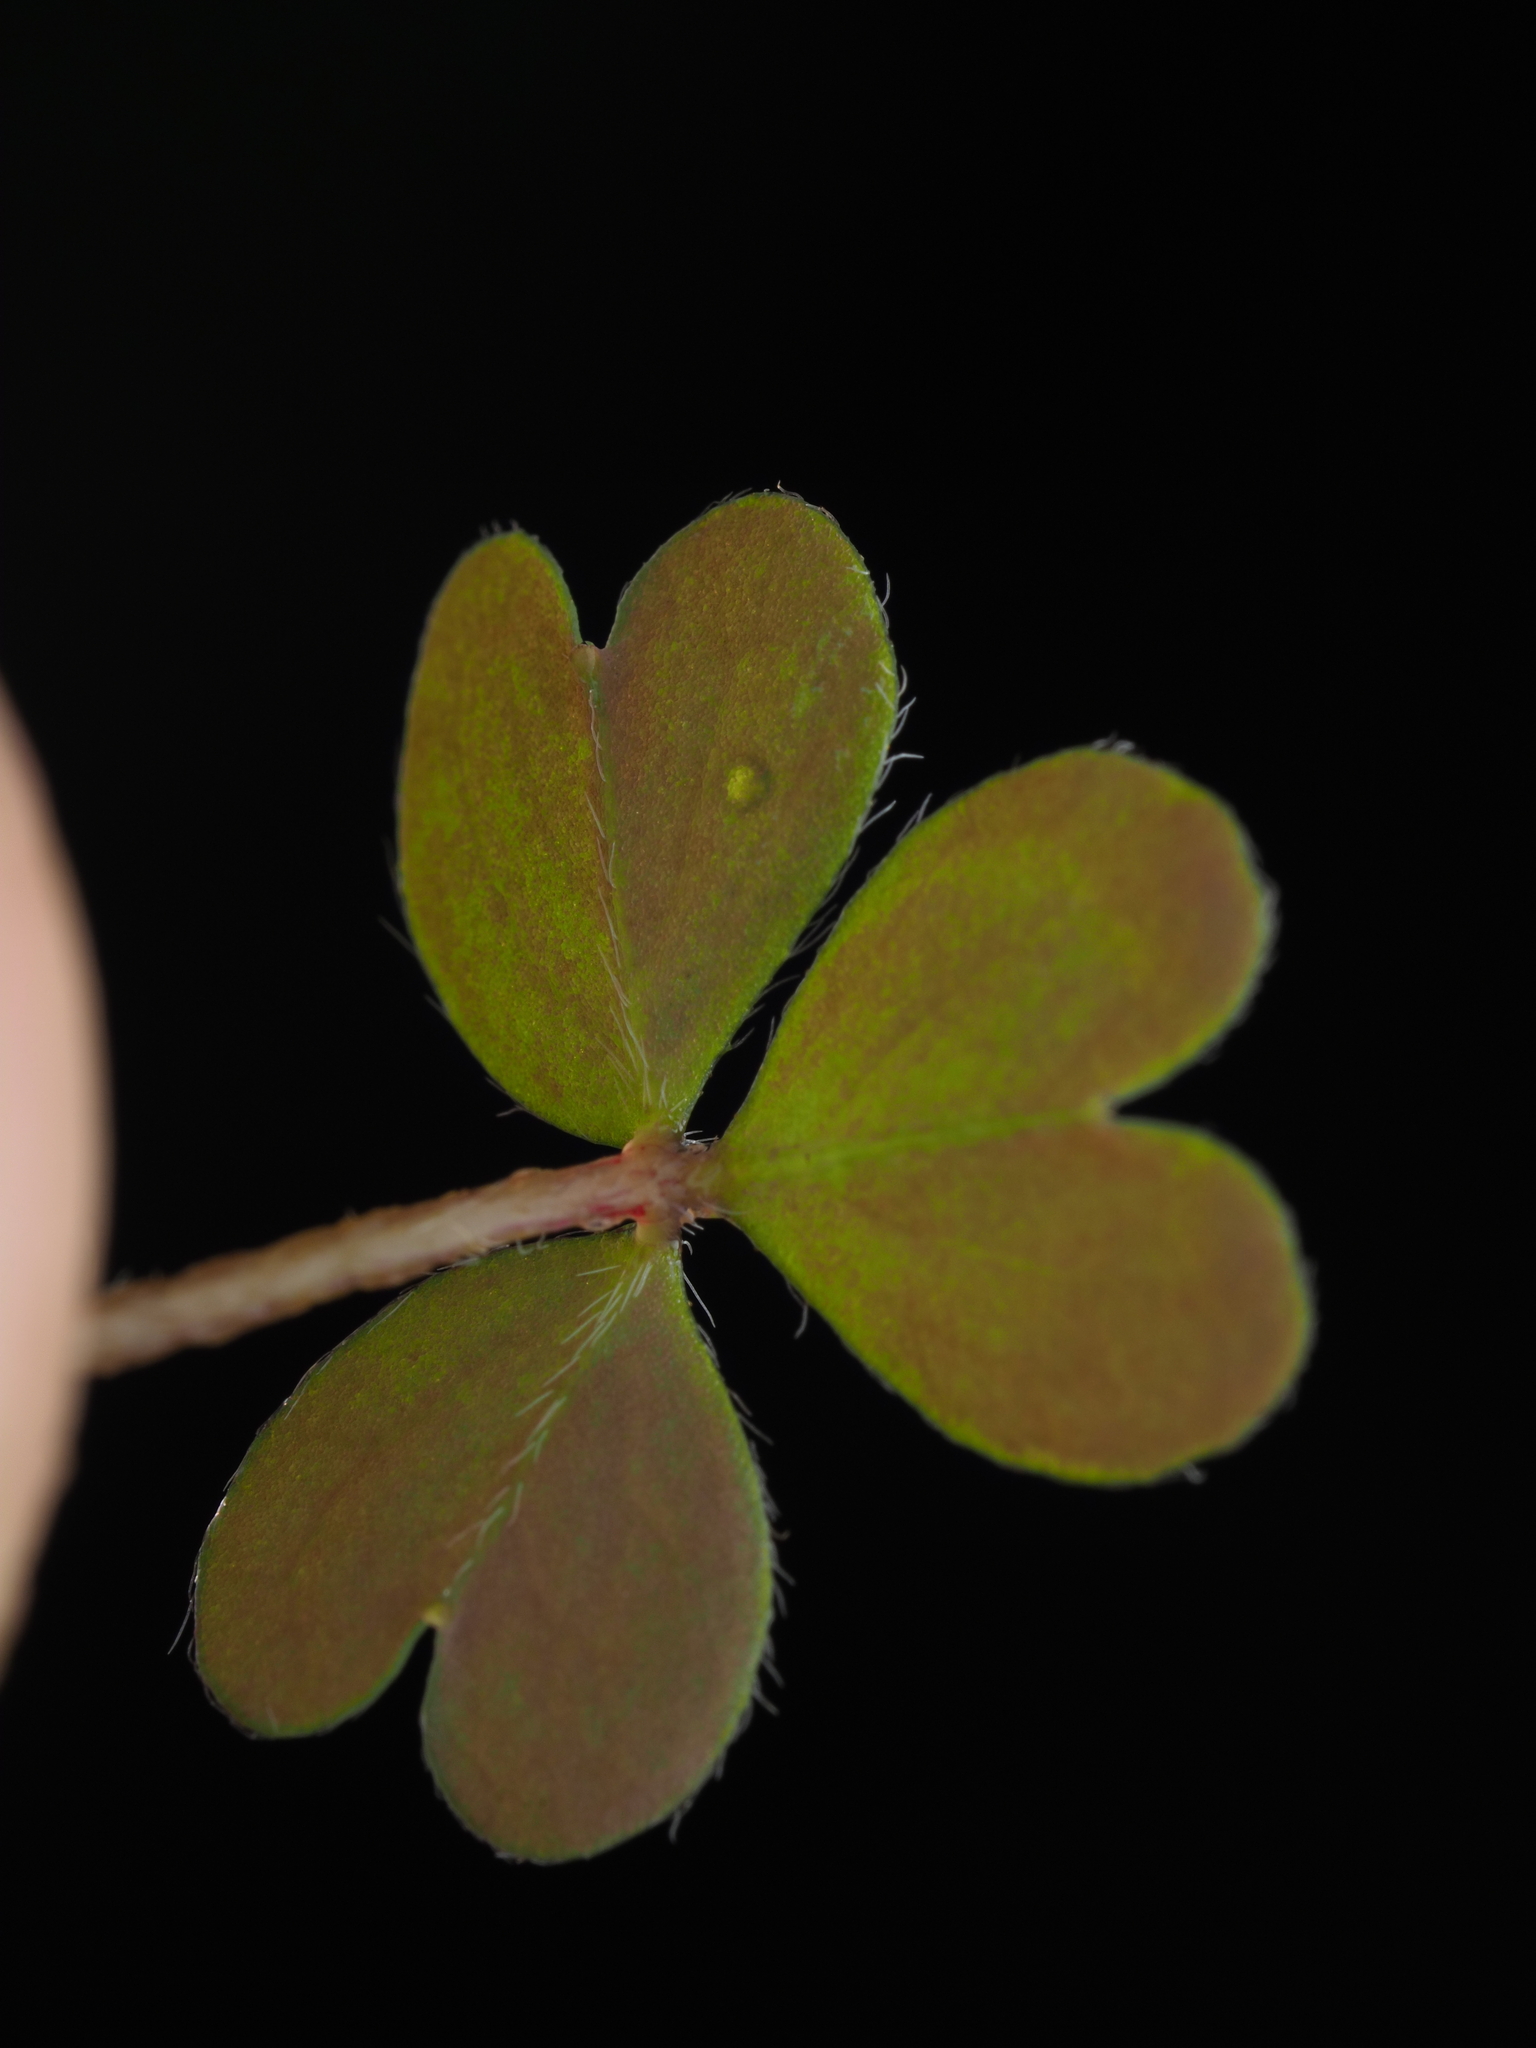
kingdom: Plantae
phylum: Tracheophyta
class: Magnoliopsida
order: Oxalidales
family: Oxalidaceae
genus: Oxalis
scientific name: Oxalis magellanica
